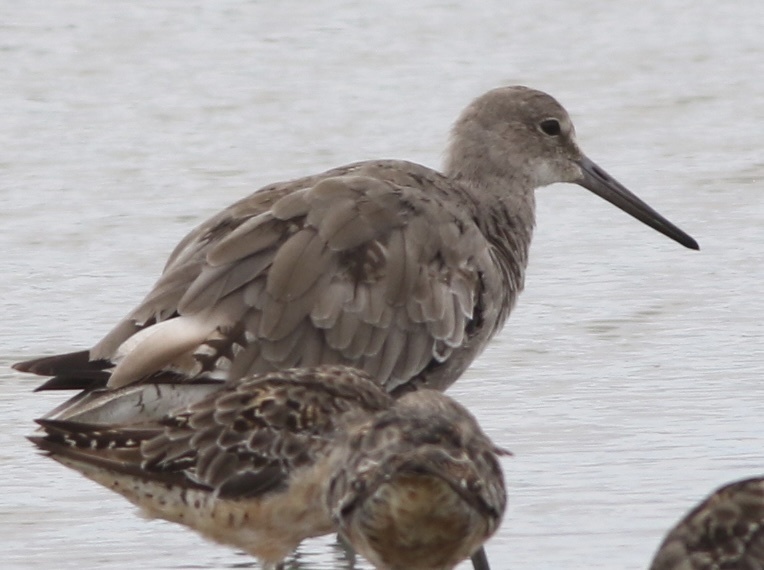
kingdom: Animalia
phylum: Chordata
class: Aves
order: Charadriiformes
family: Scolopacidae
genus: Tringa
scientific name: Tringa semipalmata
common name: Willet
